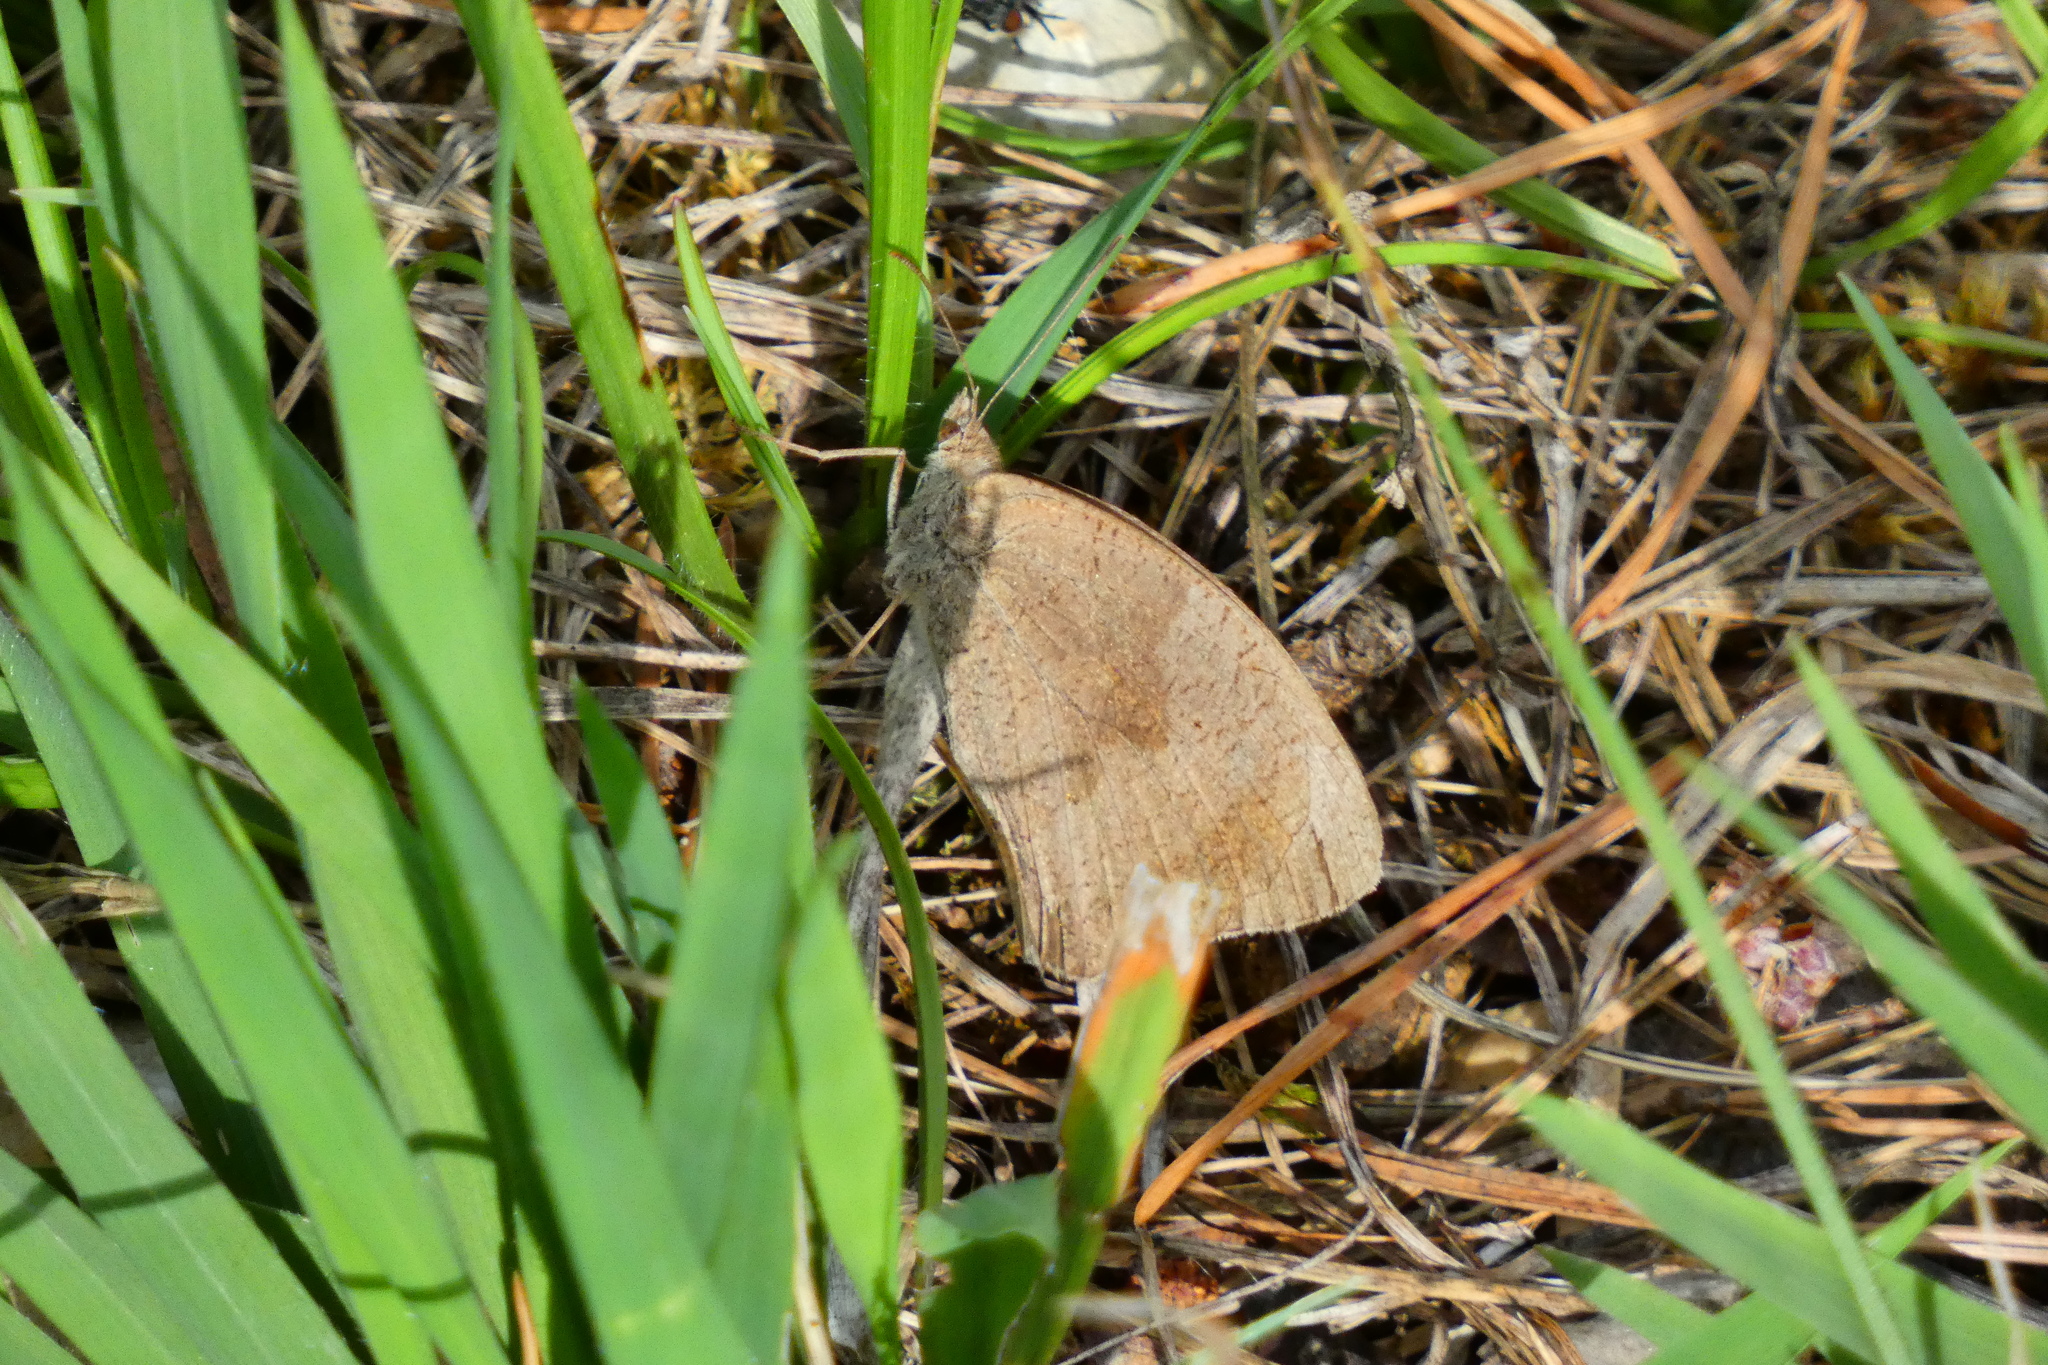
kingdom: Animalia
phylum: Arthropoda
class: Insecta
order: Lepidoptera
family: Nymphalidae
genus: Maniola
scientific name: Maniola jurtina
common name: Meadow brown
